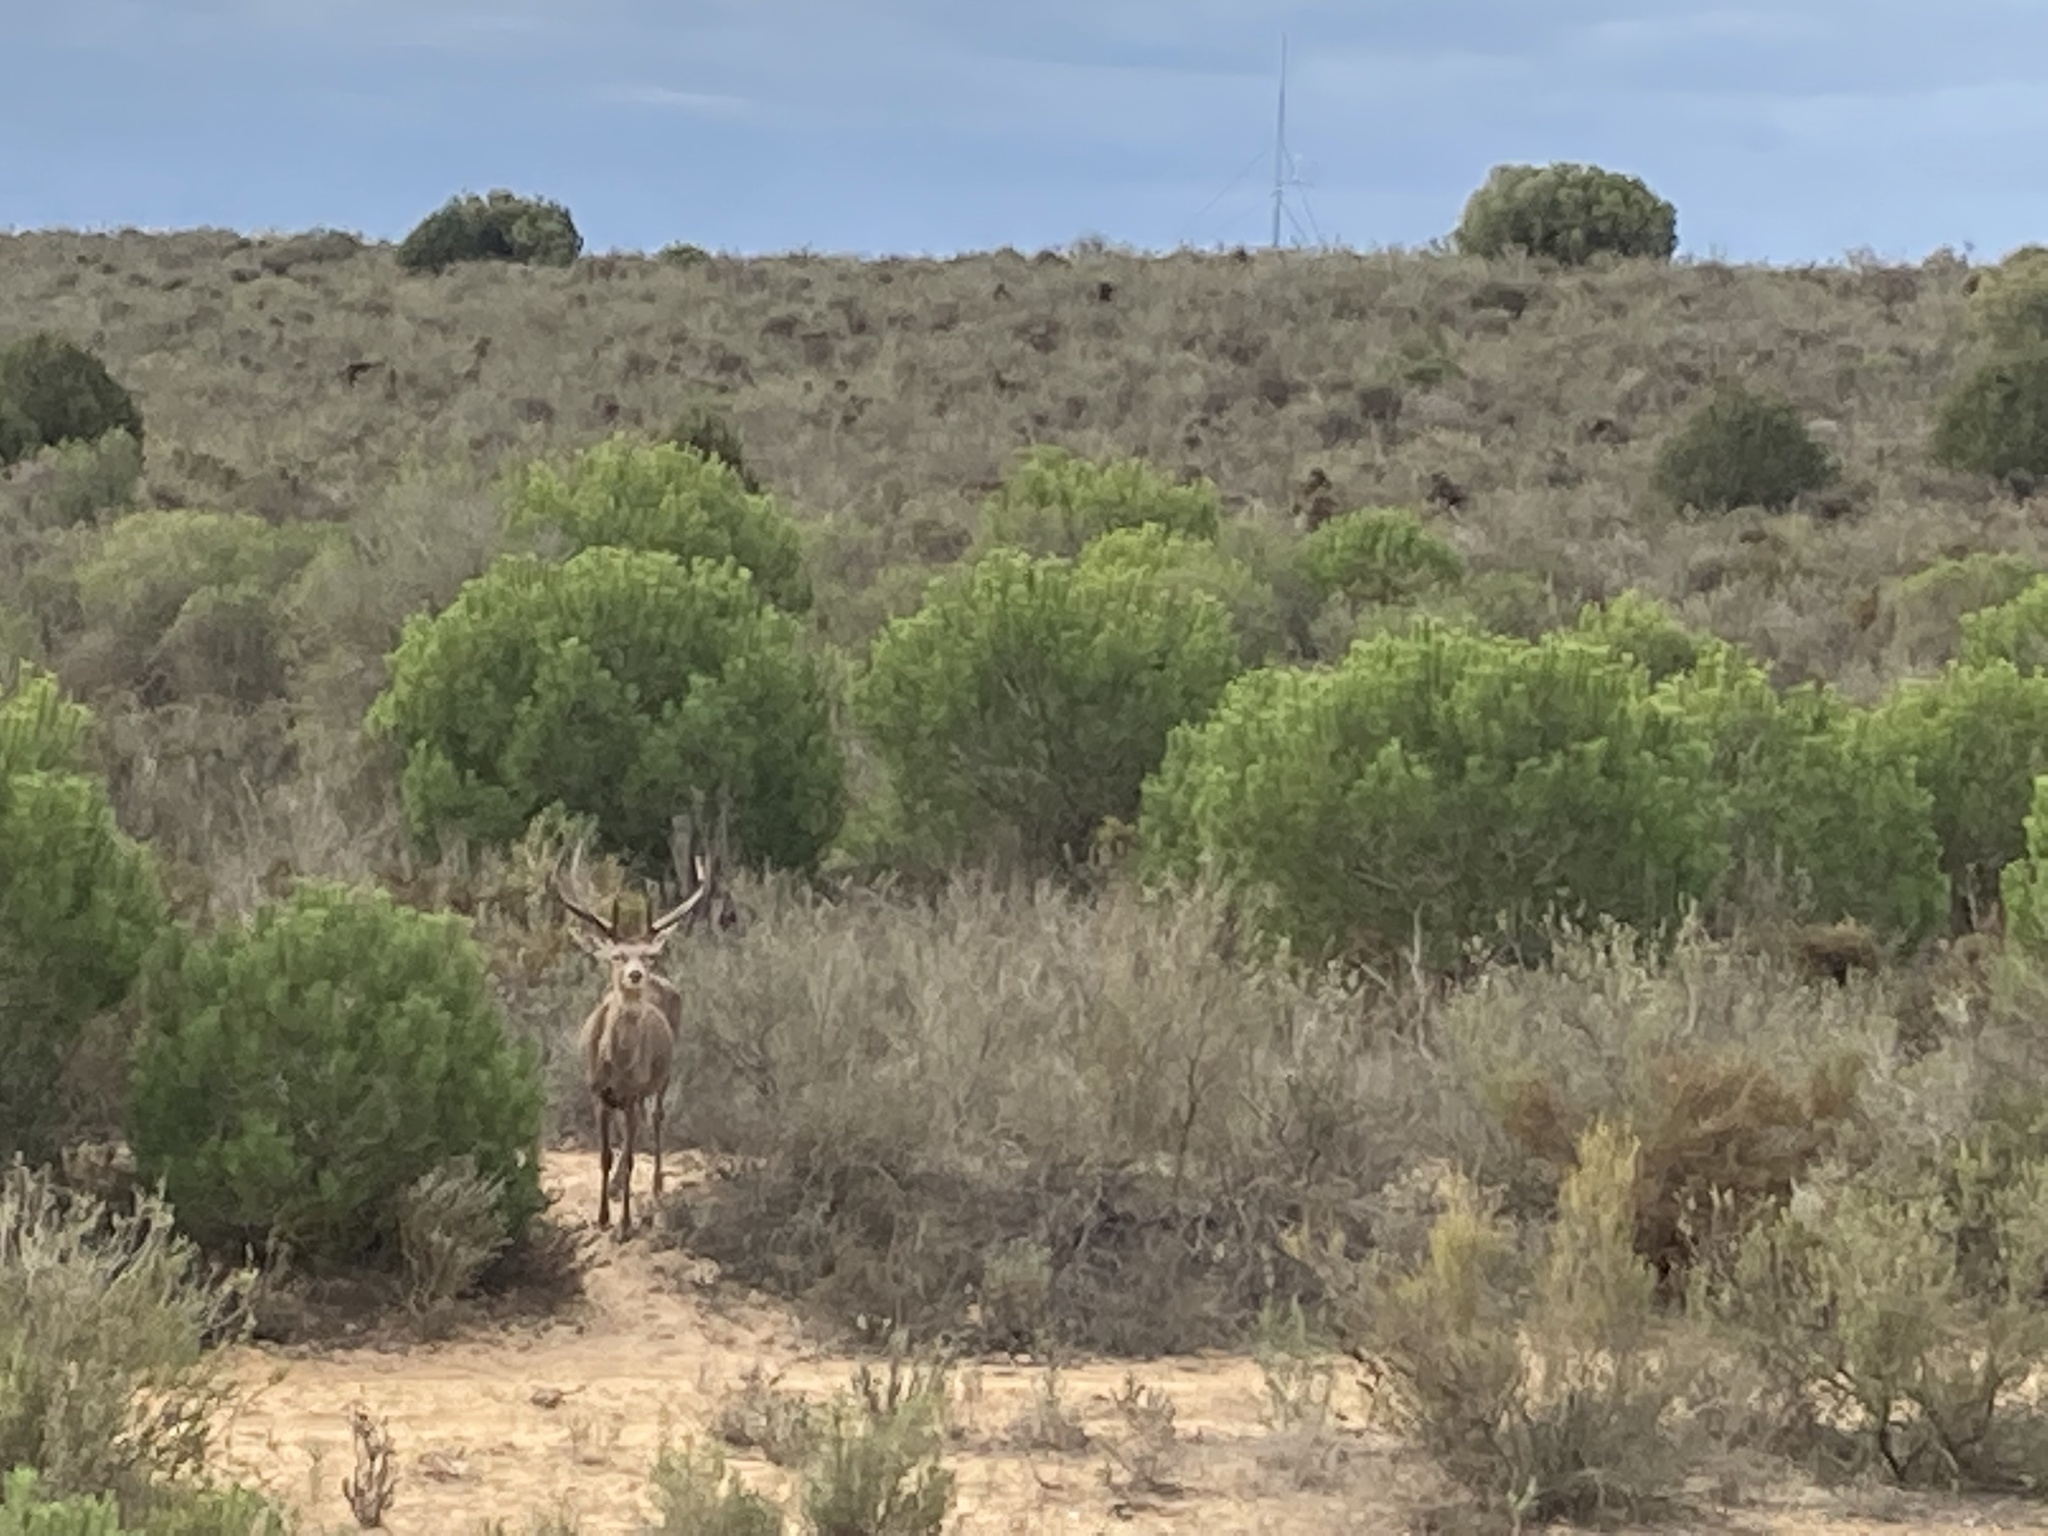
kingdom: Animalia
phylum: Chordata
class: Mammalia
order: Artiodactyla
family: Cervidae
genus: Cervus
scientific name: Cervus elaphus
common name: Red deer
